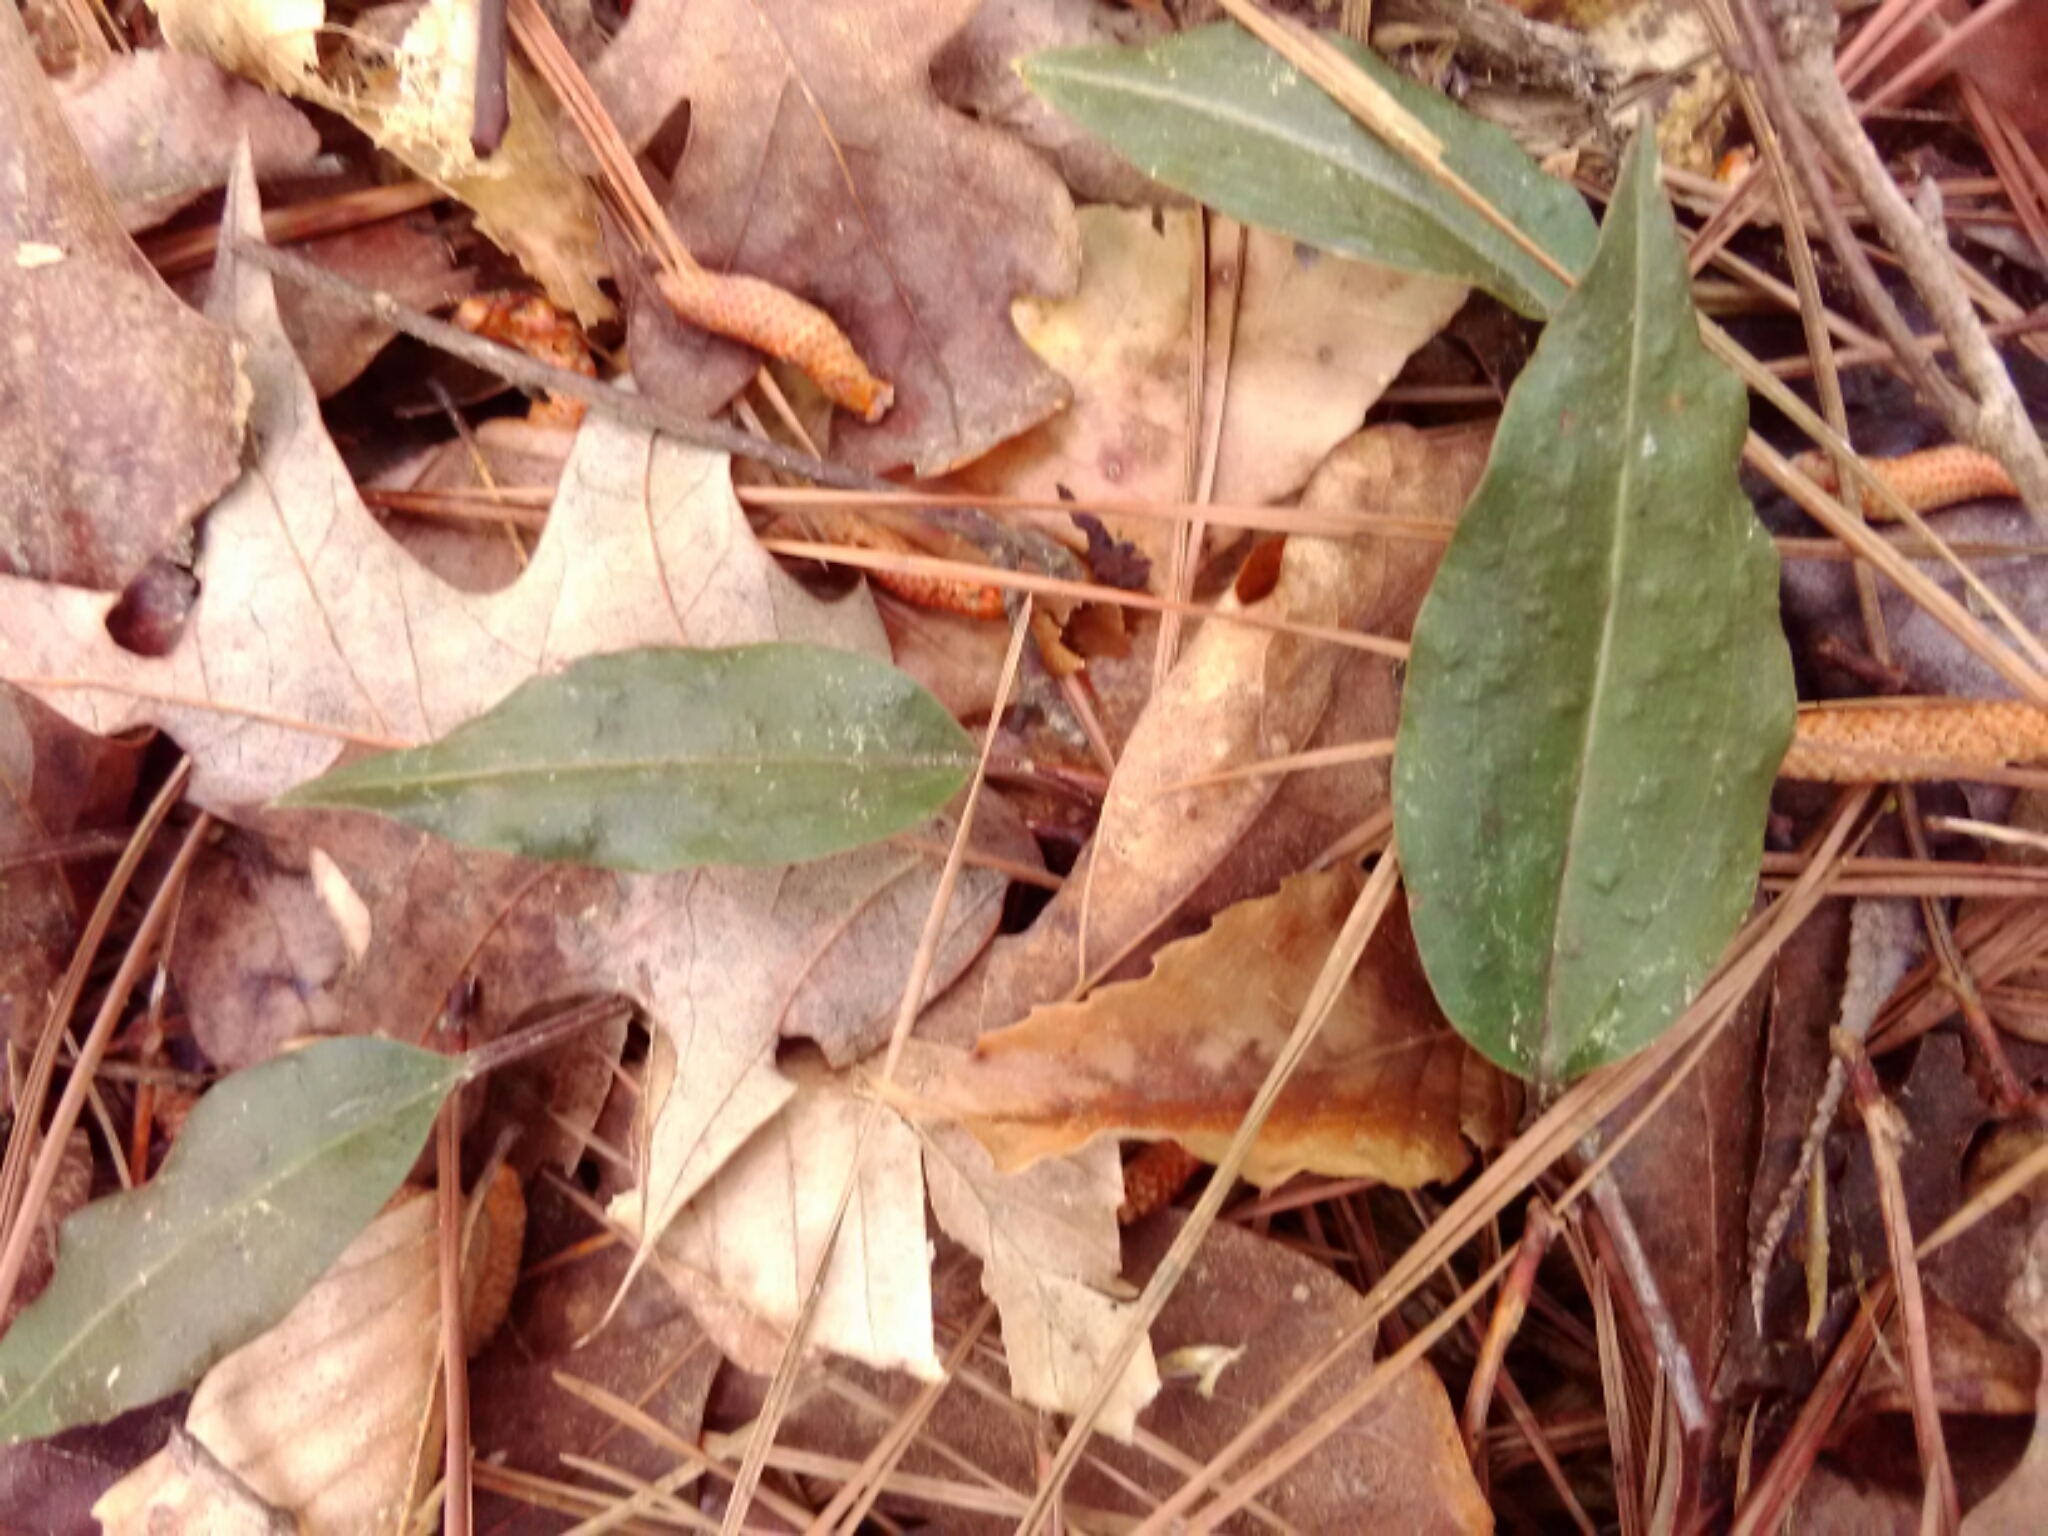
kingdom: Plantae
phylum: Tracheophyta
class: Liliopsida
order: Asparagales
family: Orchidaceae
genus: Tipularia
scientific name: Tipularia discolor
